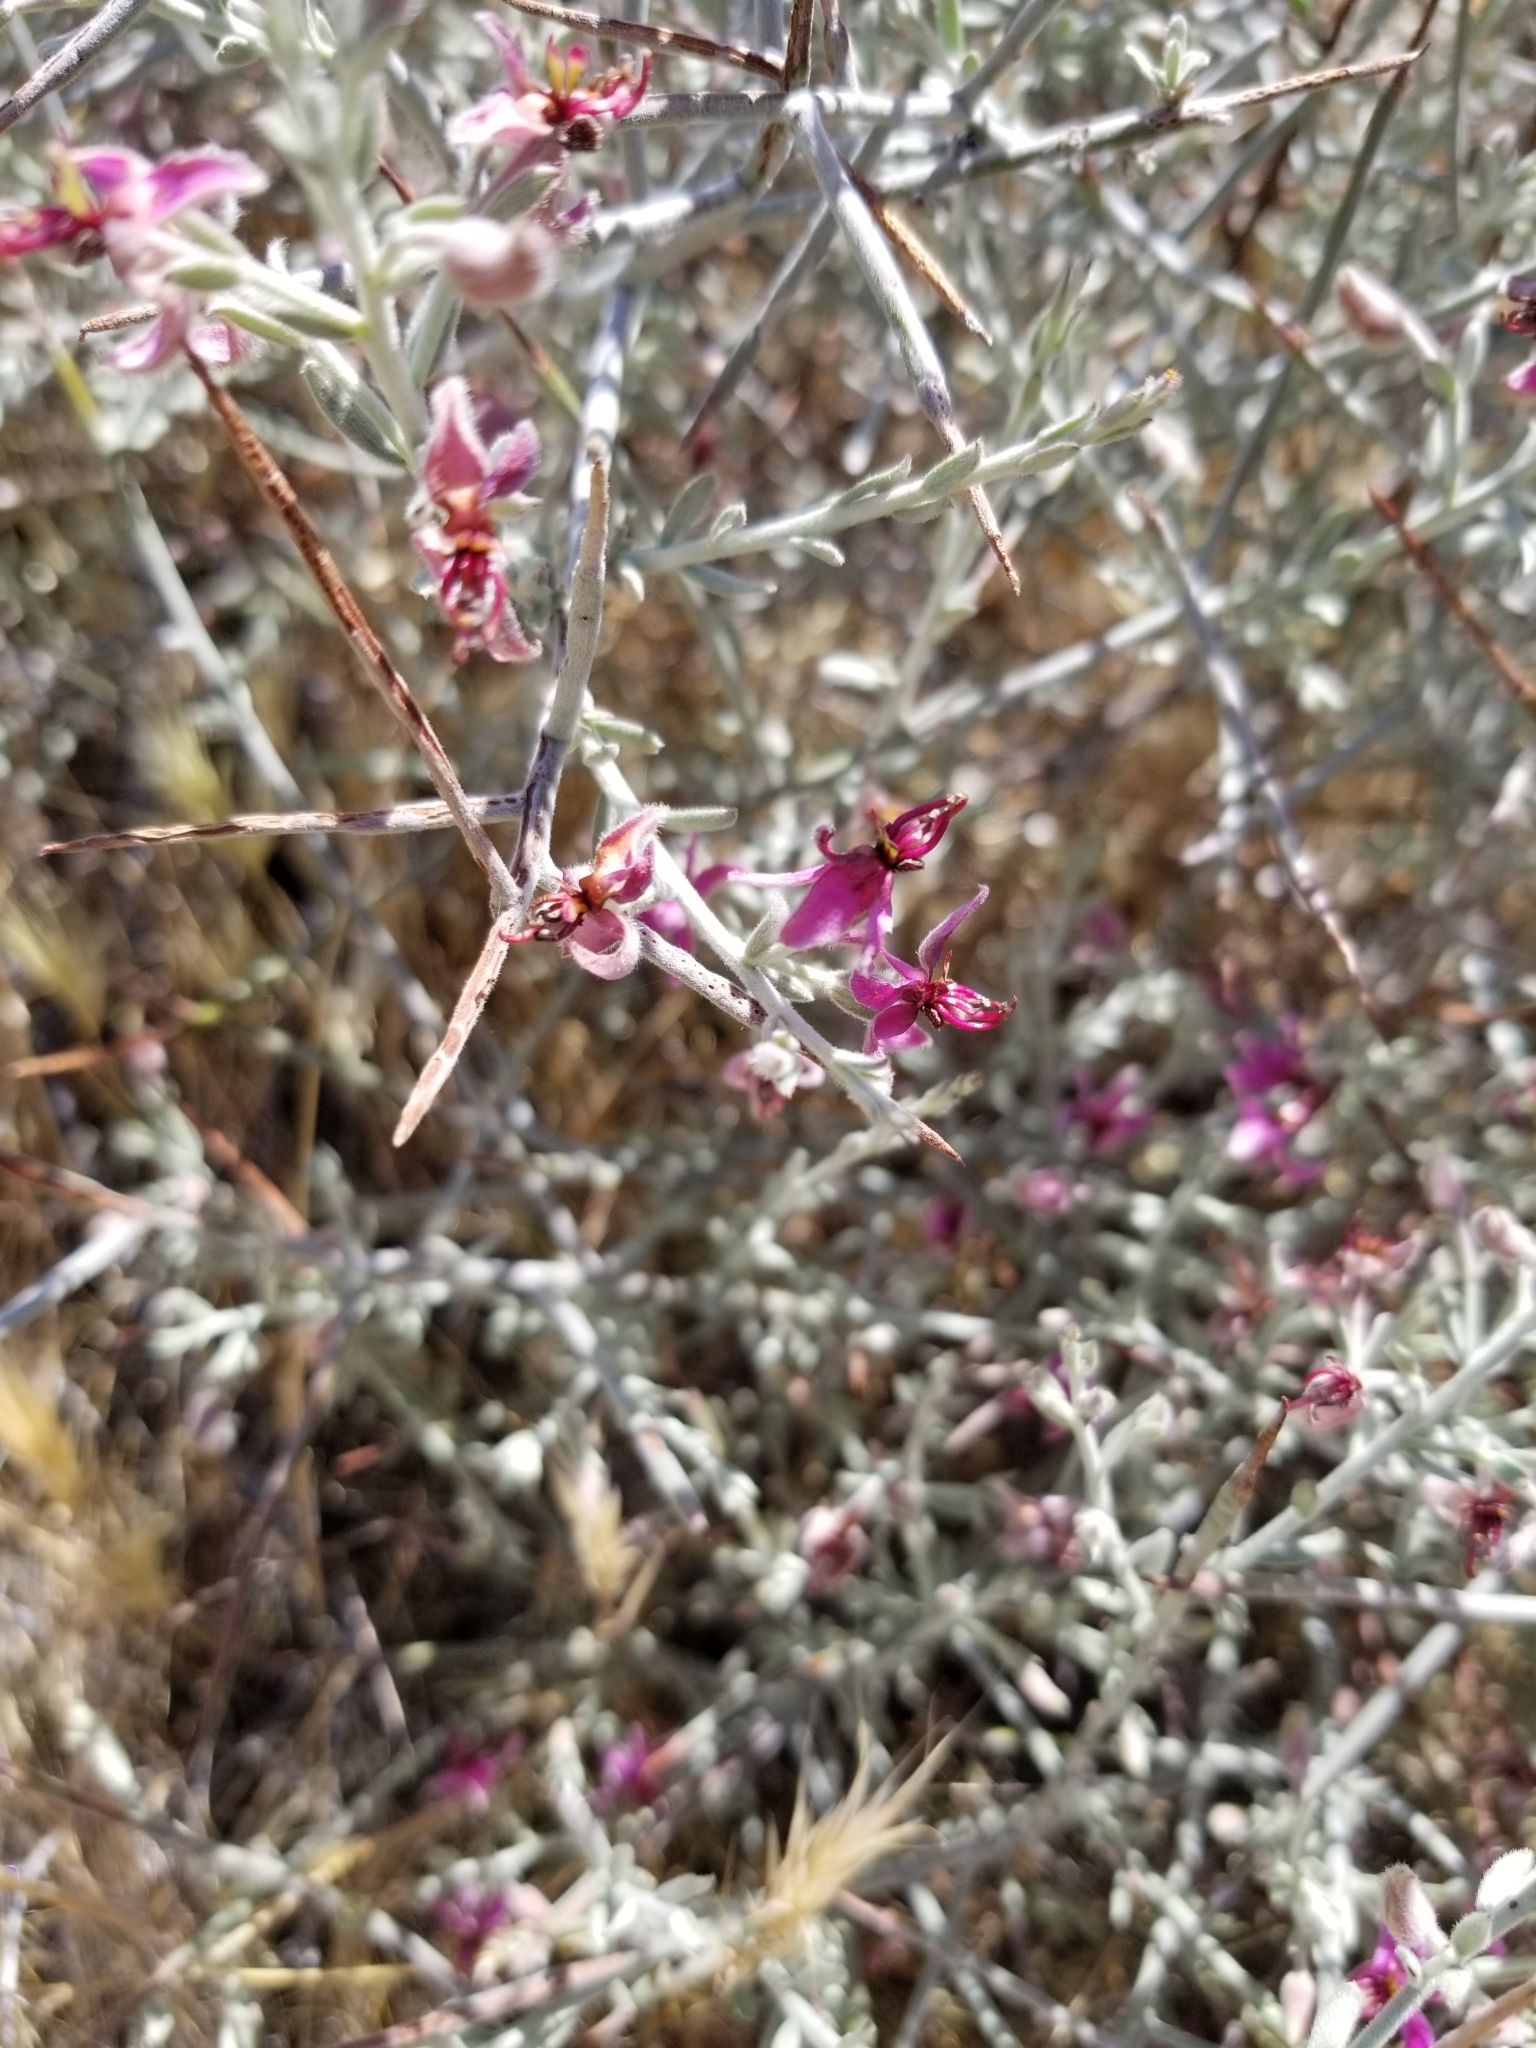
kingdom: Plantae
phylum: Tracheophyta
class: Magnoliopsida
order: Zygophyllales
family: Krameriaceae
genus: Krameria
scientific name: Krameria bicolor
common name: White ratany
